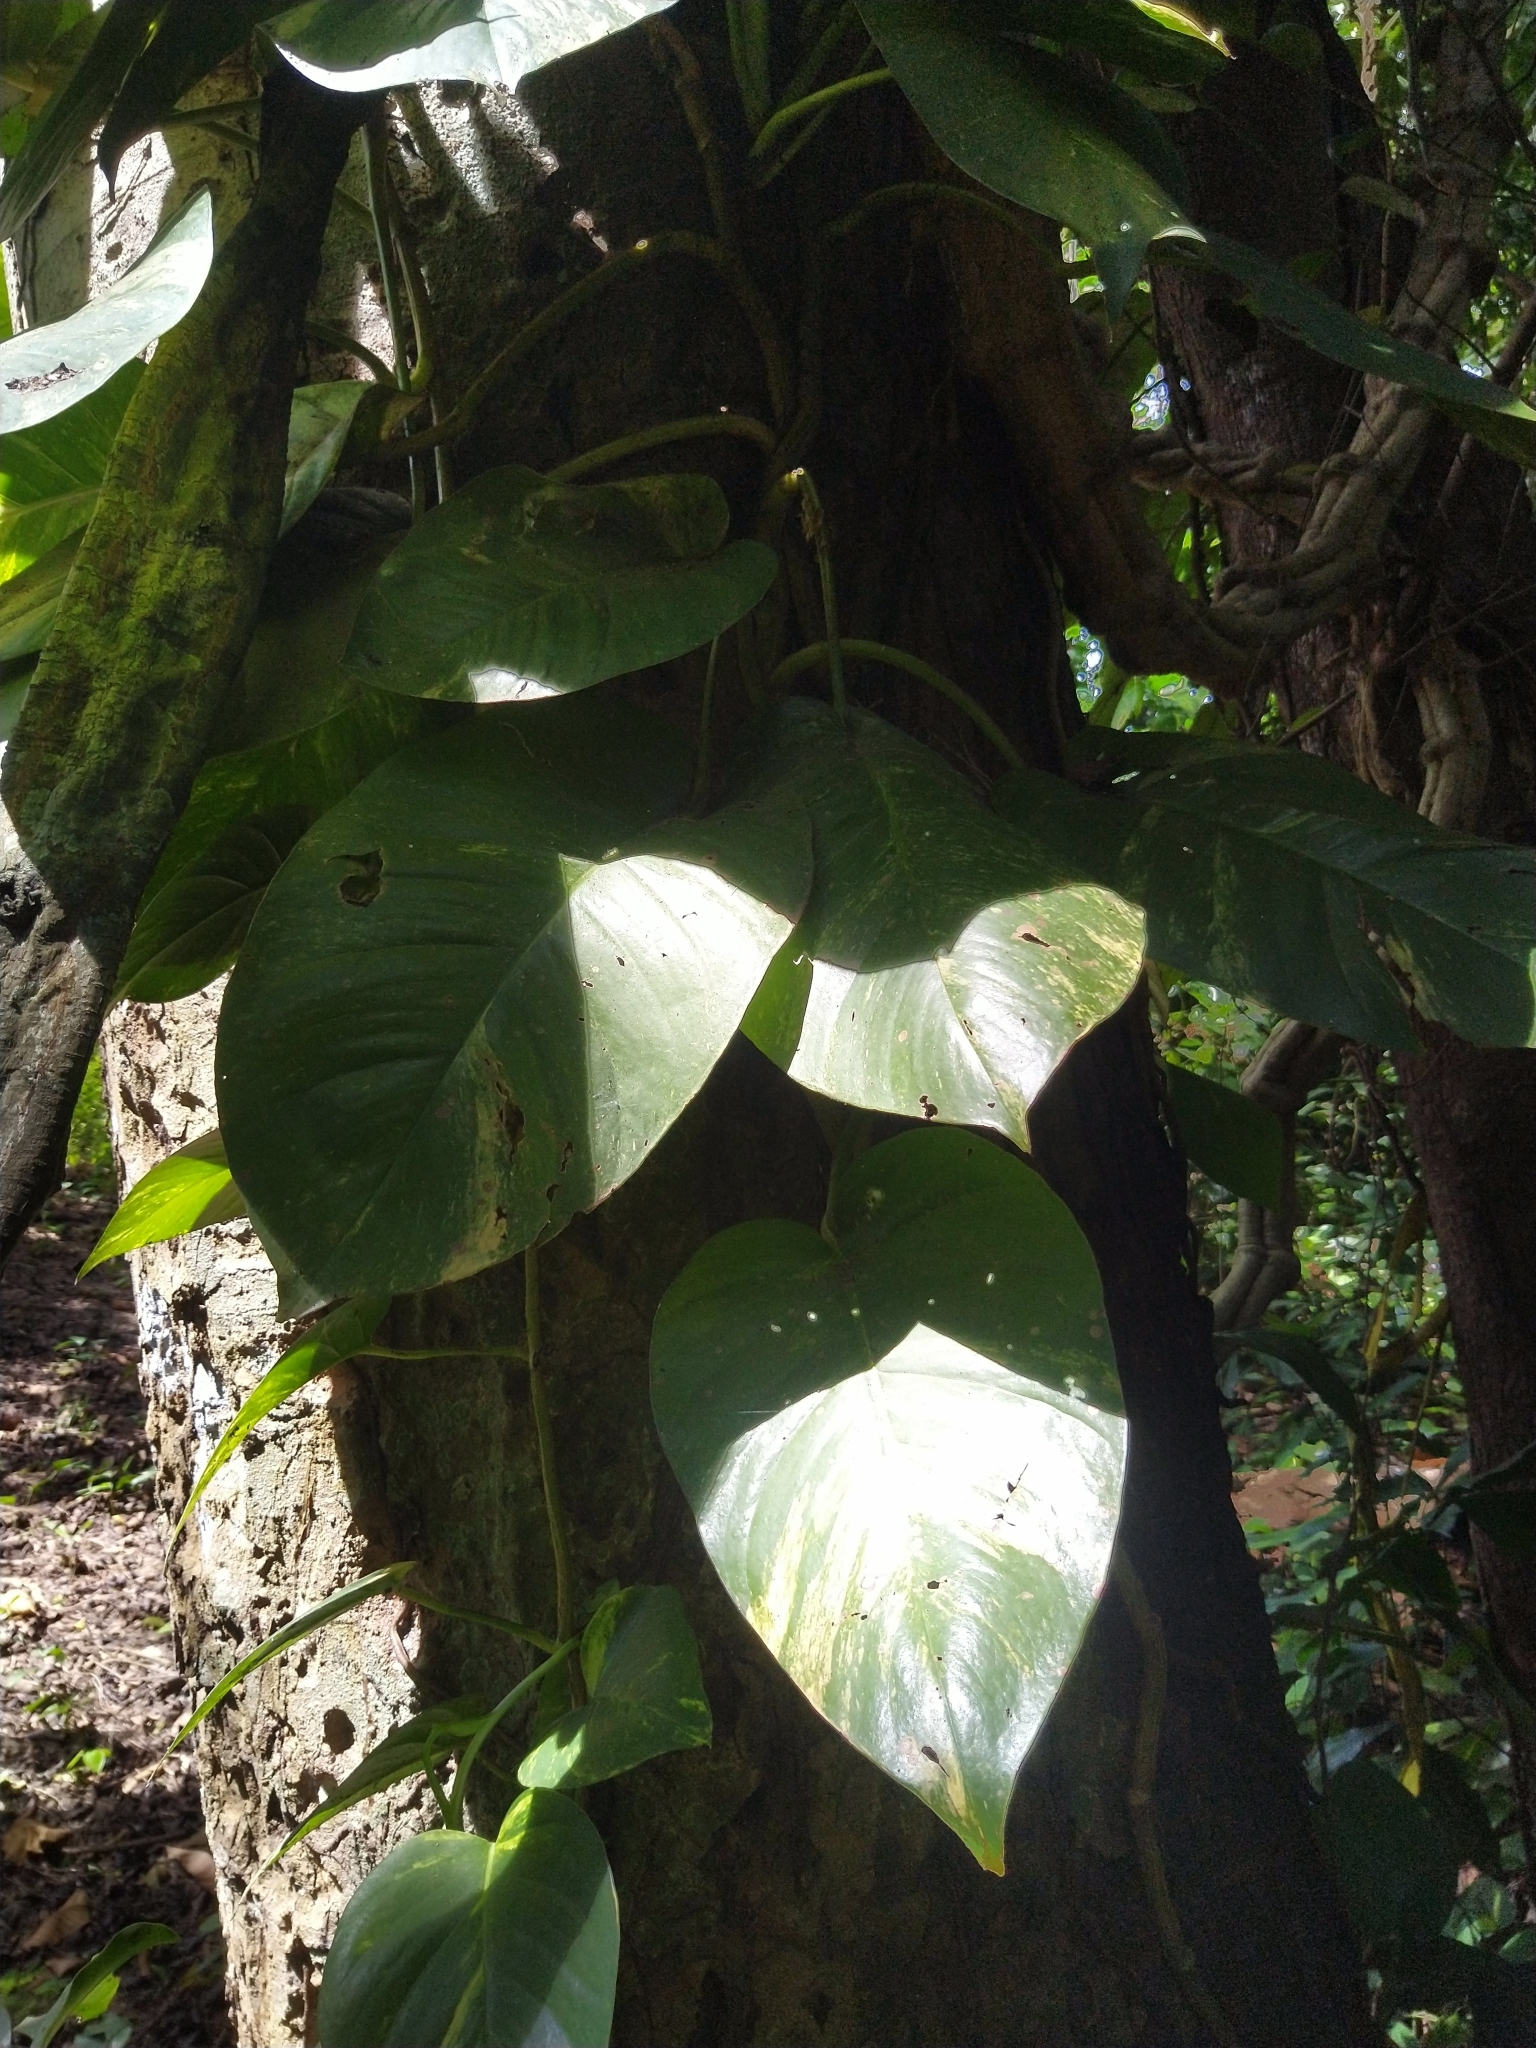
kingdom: Plantae
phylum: Tracheophyta
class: Liliopsida
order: Alismatales
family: Araceae
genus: Epipremnum
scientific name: Epipremnum aureum
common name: Golden hunter's-robe
